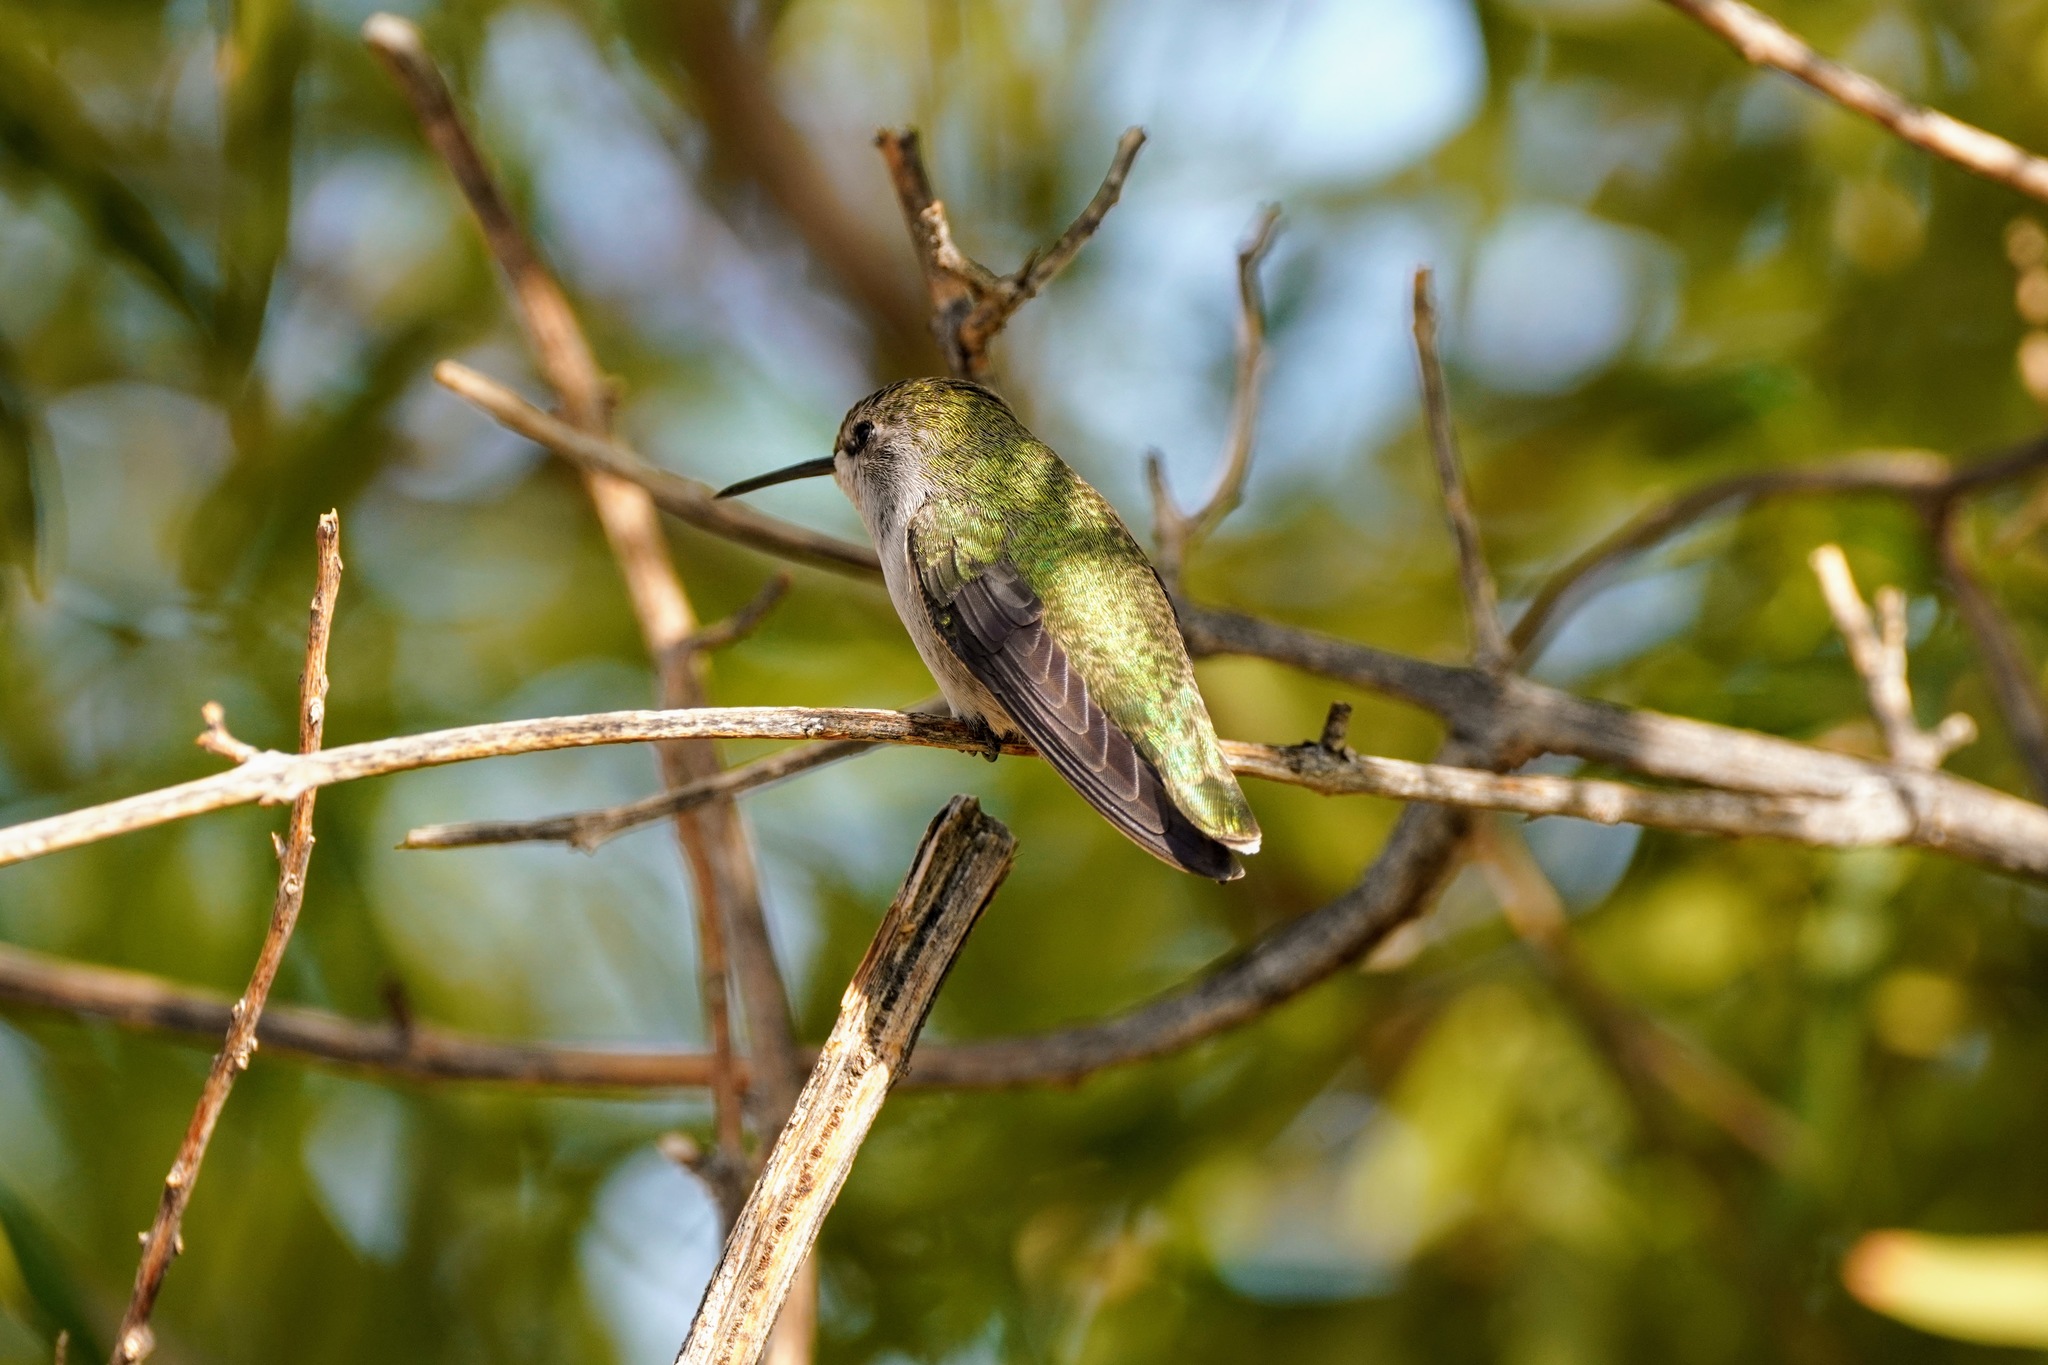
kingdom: Animalia
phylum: Chordata
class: Aves
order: Apodiformes
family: Trochilidae
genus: Calypte
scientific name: Calypte costae
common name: Costa's hummingbird
